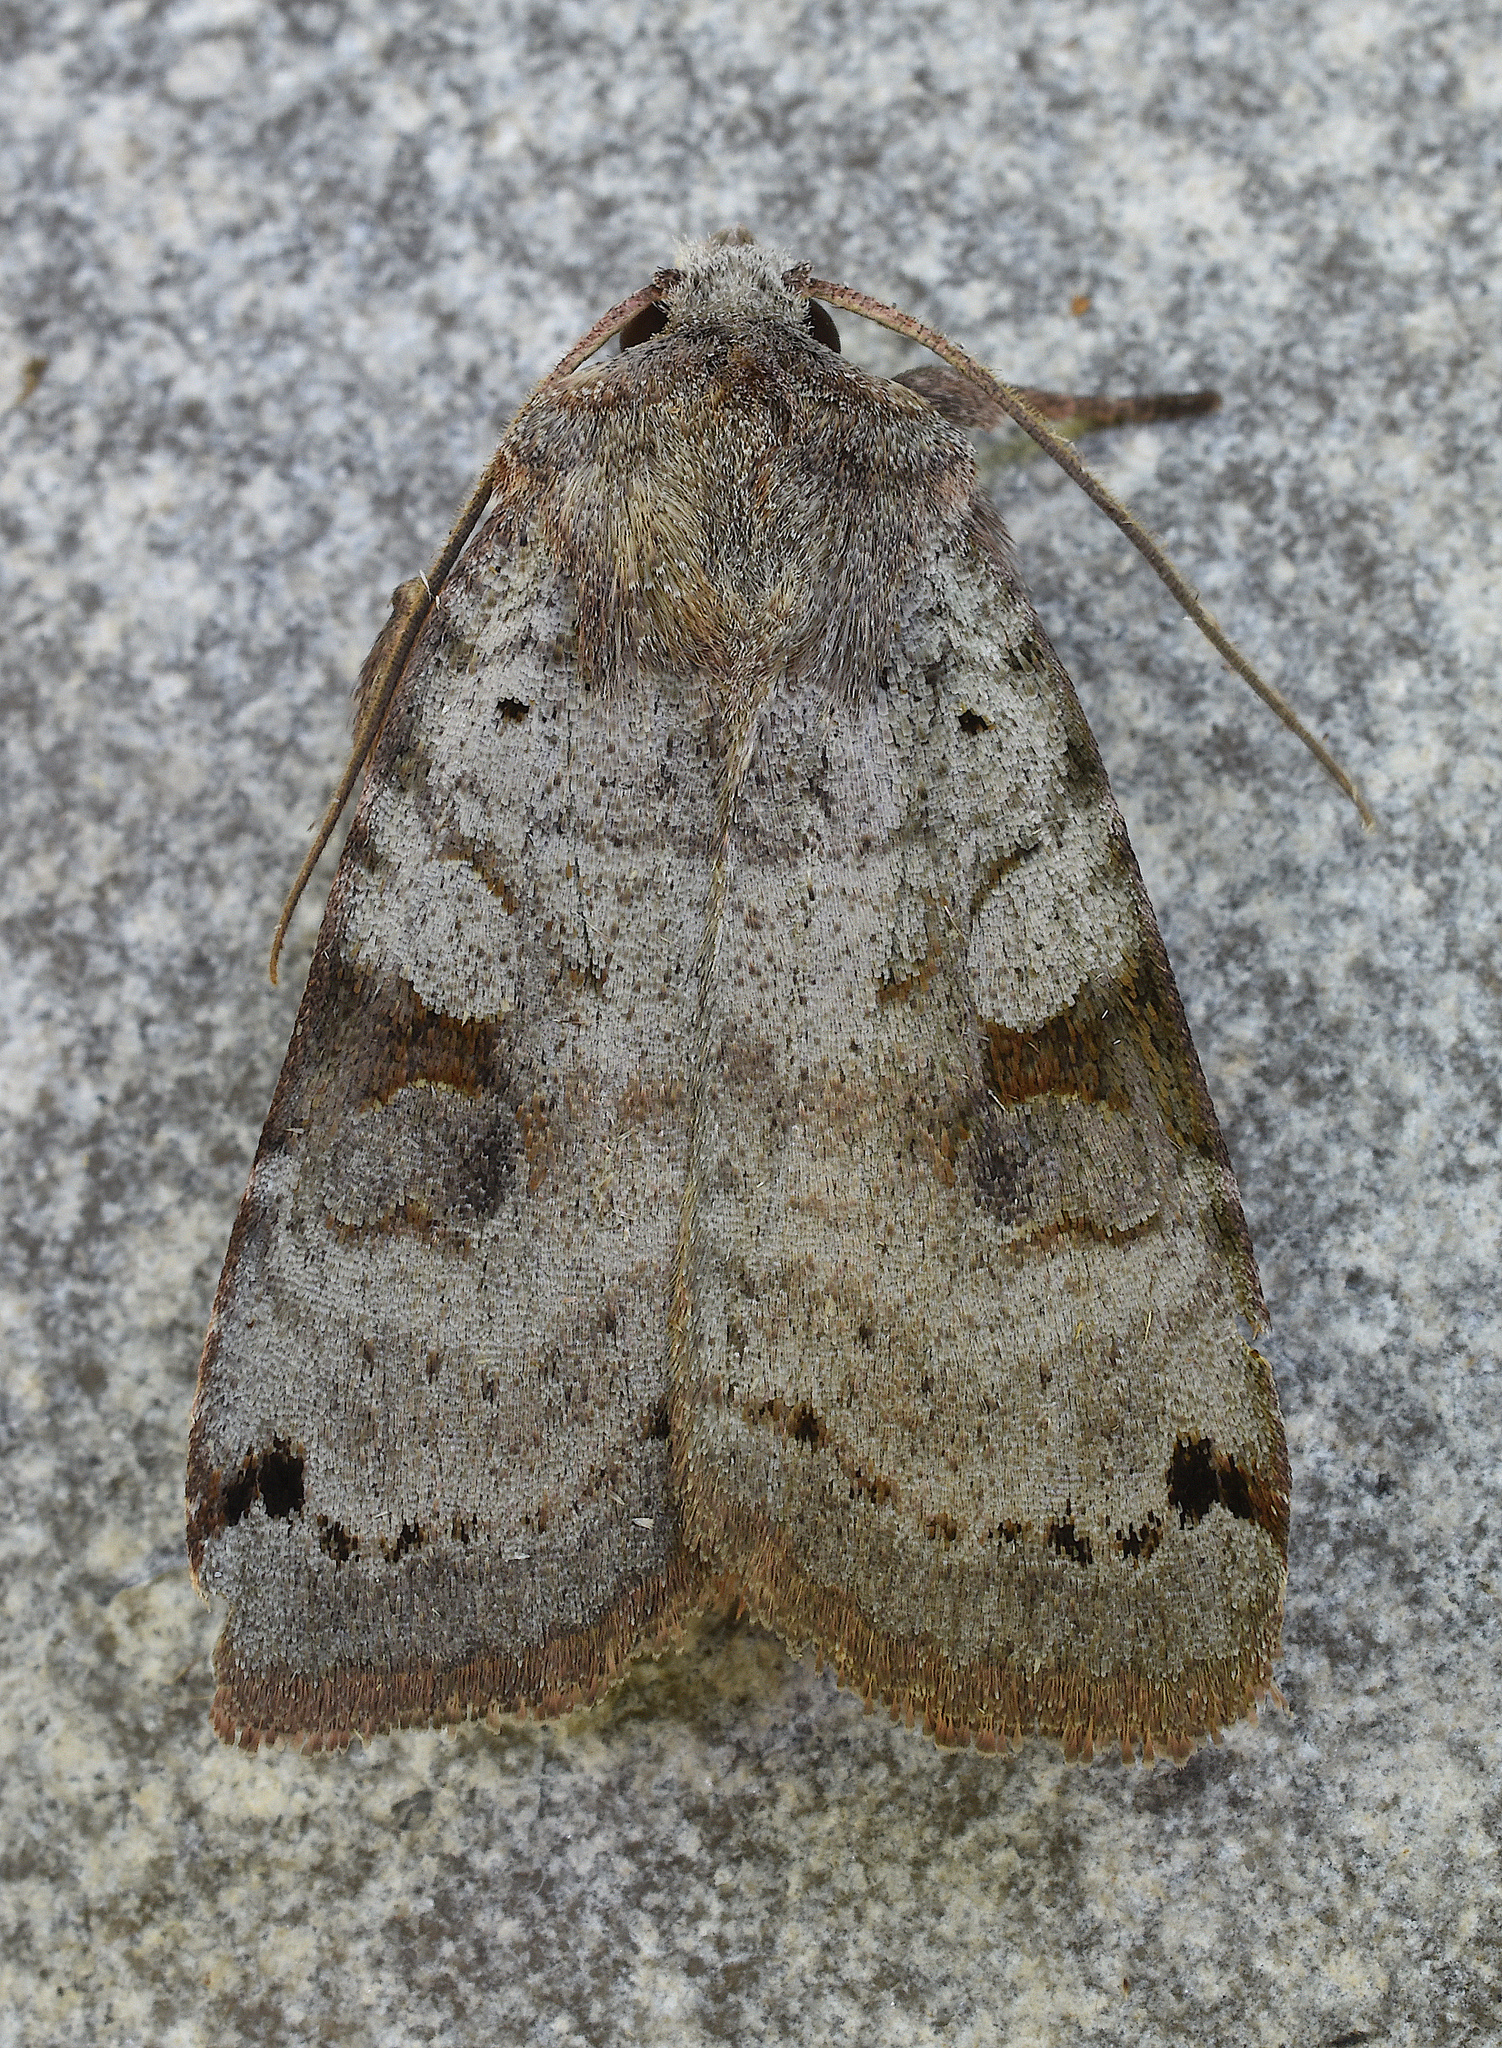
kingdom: Animalia
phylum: Arthropoda
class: Insecta
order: Lepidoptera
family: Noctuidae
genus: Xestia
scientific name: Xestia smithii
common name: Smith's dart
